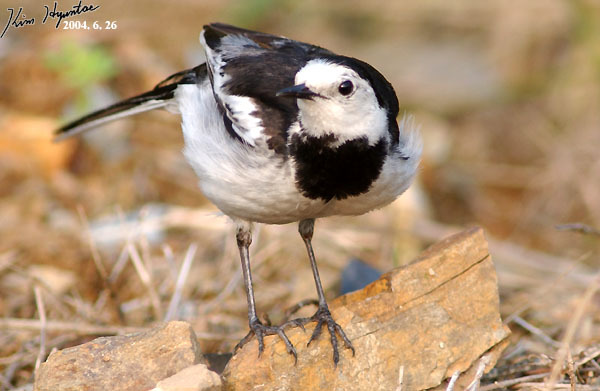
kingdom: Animalia
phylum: Chordata
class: Aves
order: Passeriformes
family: Motacillidae
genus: Motacilla
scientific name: Motacilla alba
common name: White wagtail
